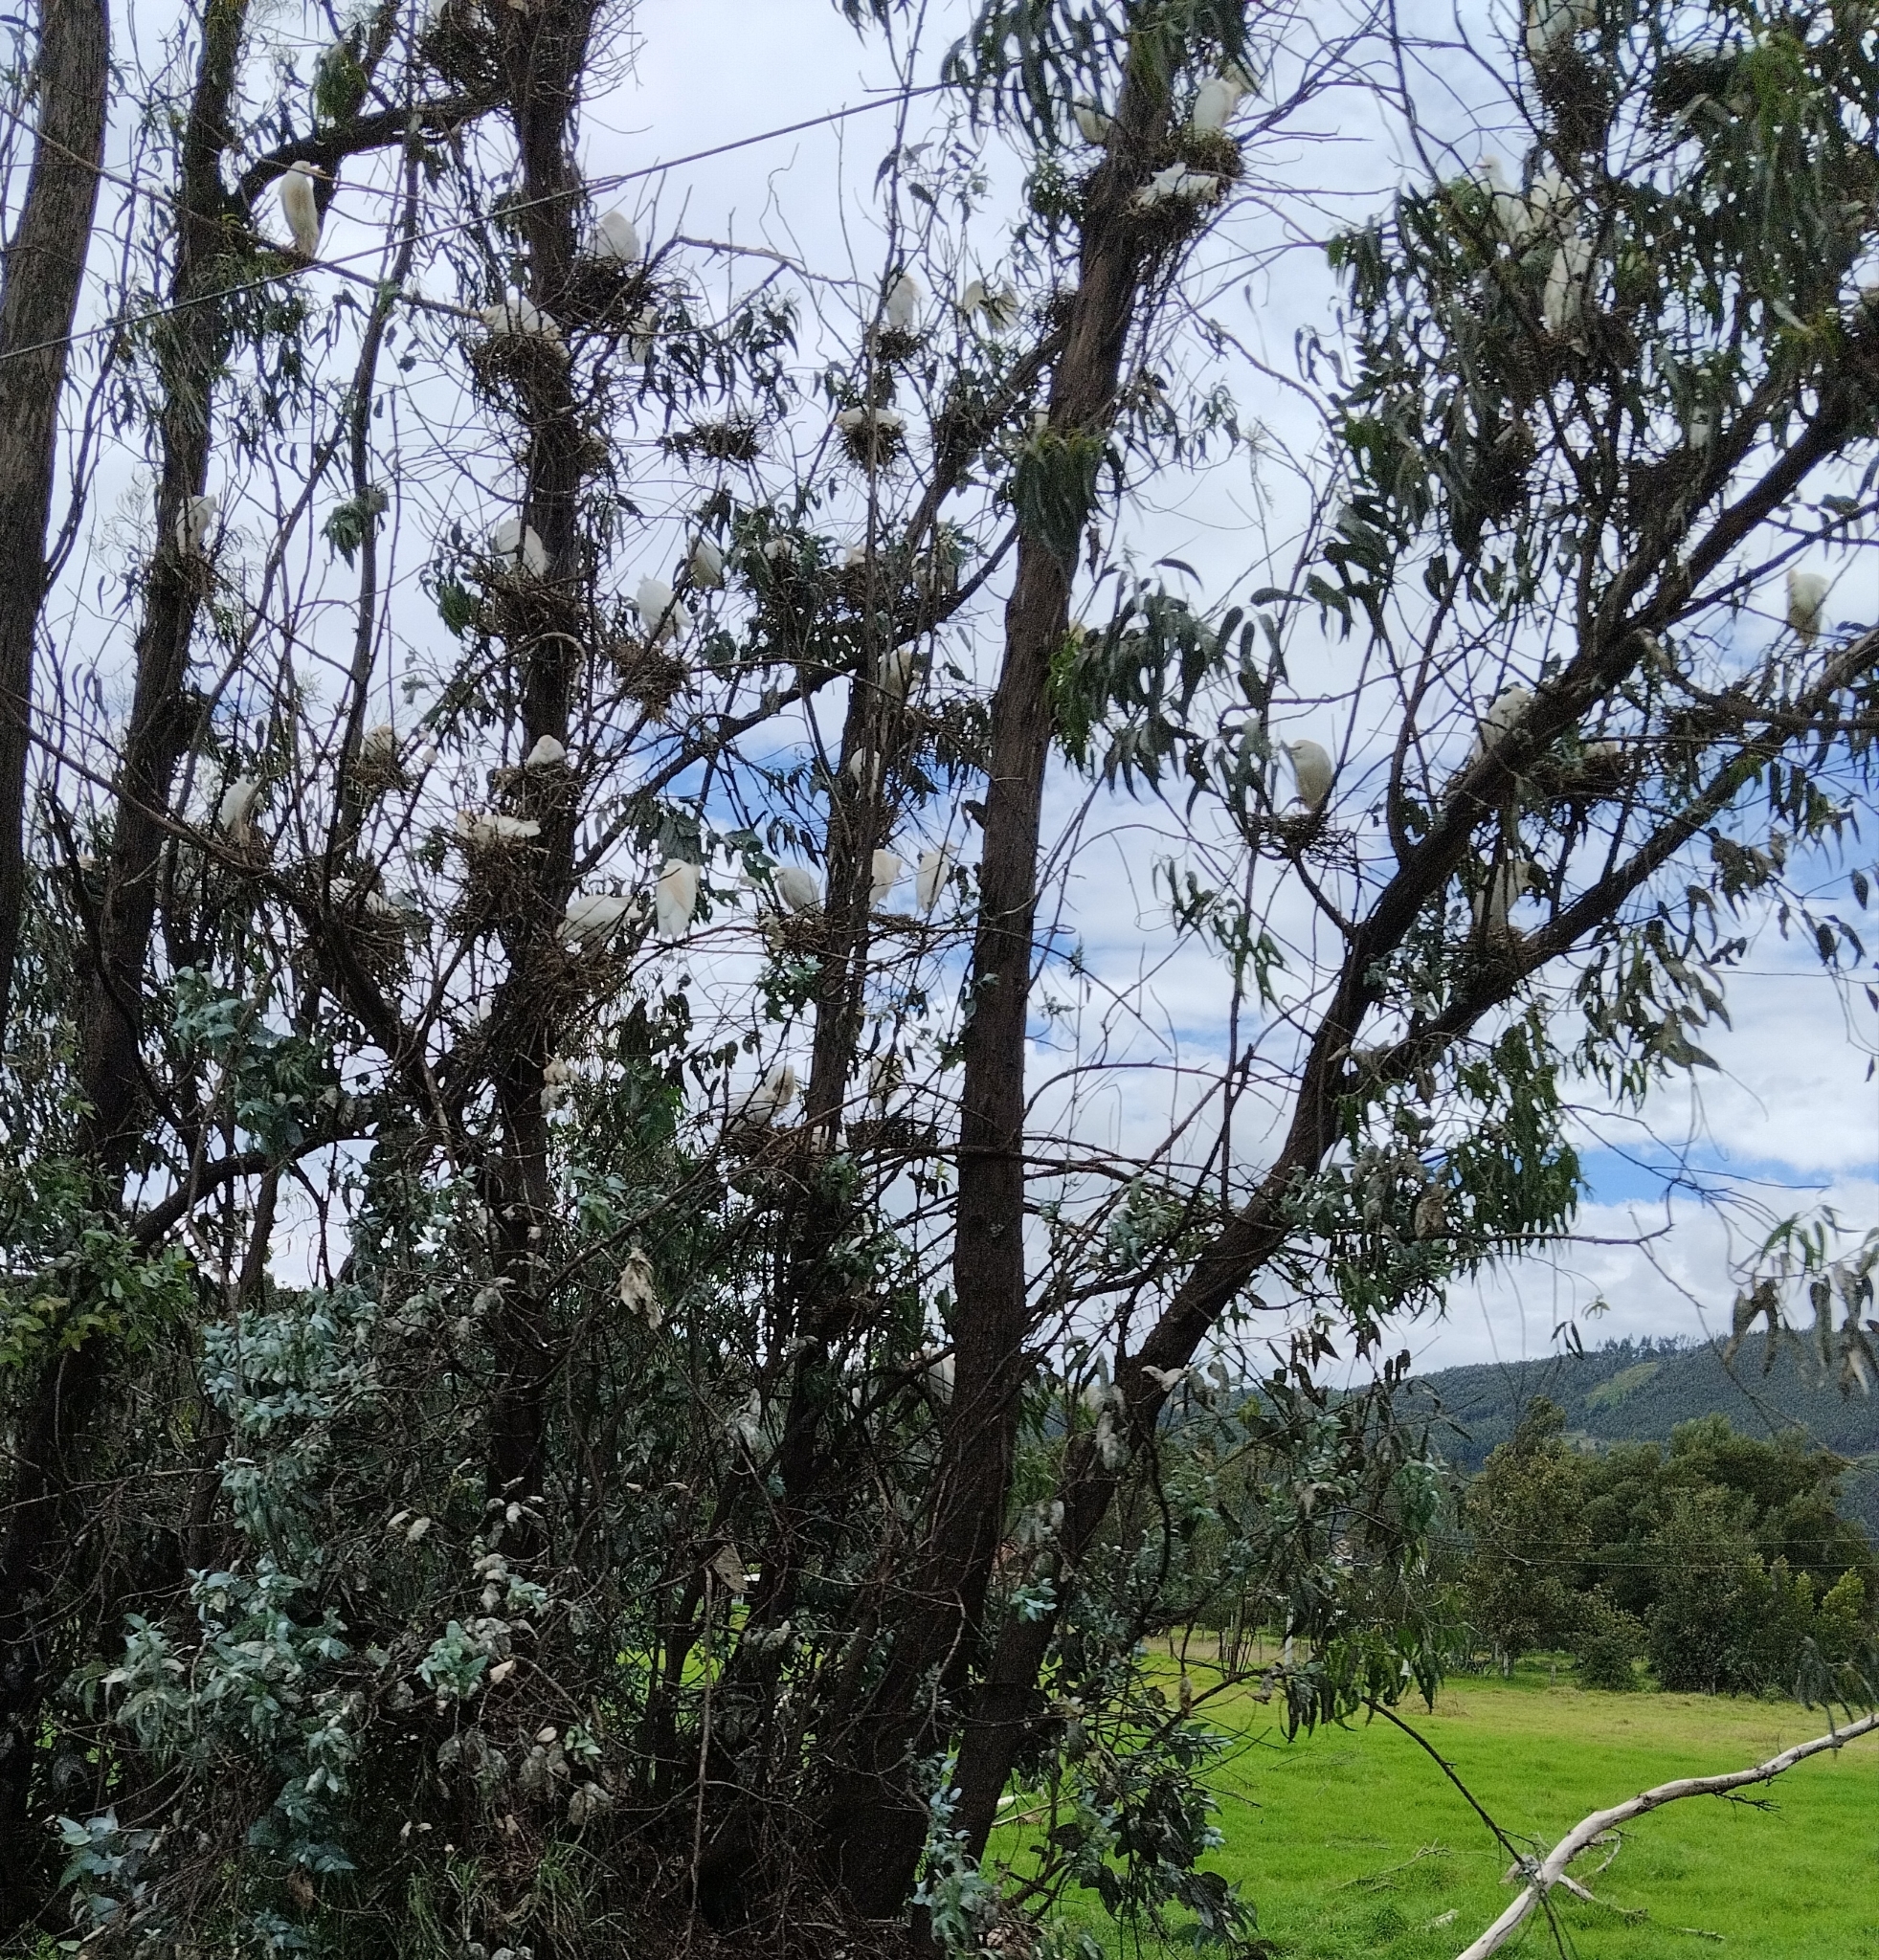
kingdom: Animalia
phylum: Chordata
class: Aves
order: Pelecaniformes
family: Ardeidae
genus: Bubulcus
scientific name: Bubulcus ibis
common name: Cattle egret
